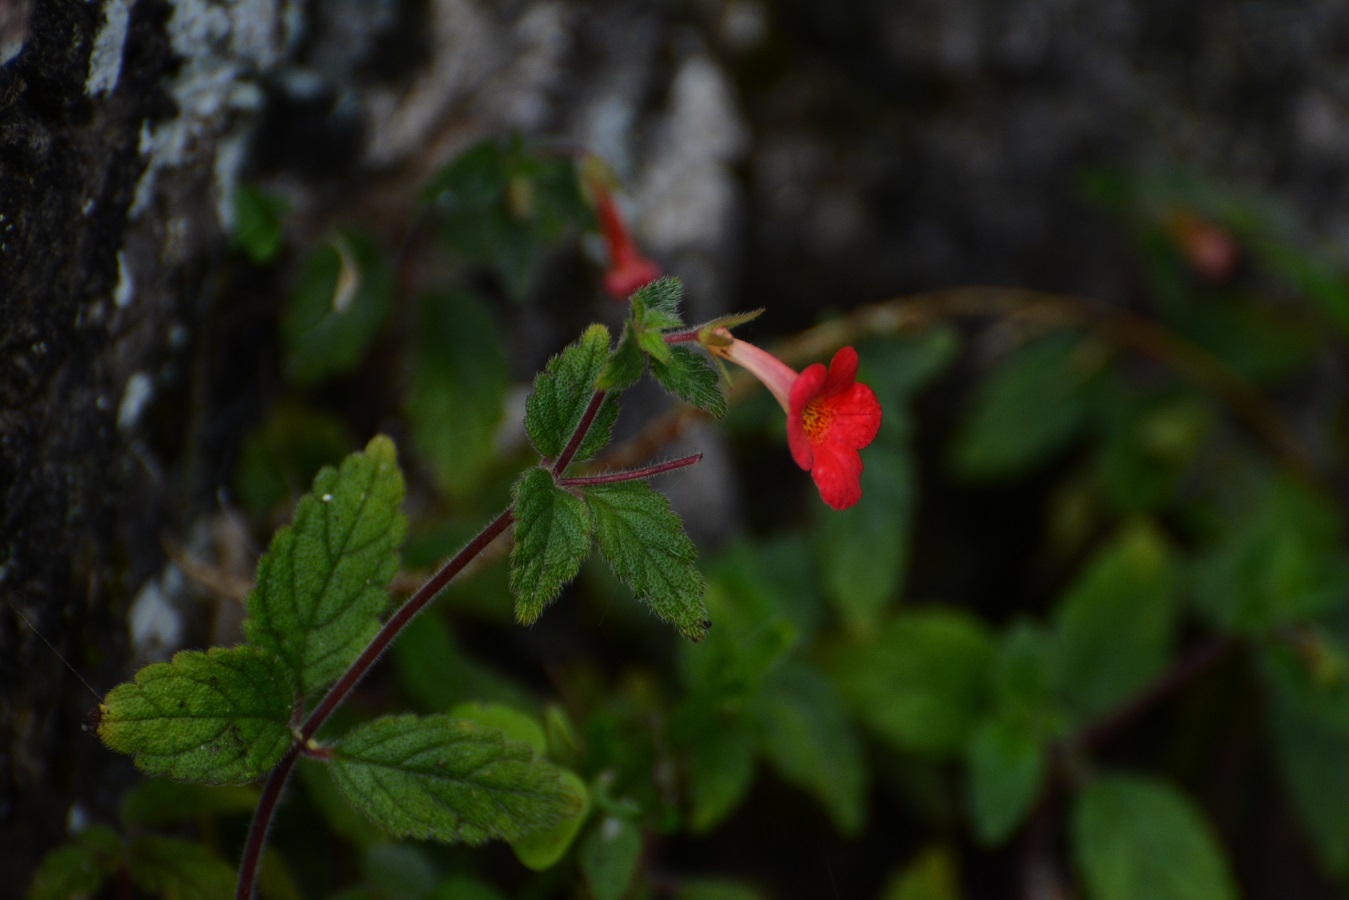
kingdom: Plantae
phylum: Tracheophyta
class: Magnoliopsida
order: Lamiales
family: Gesneriaceae
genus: Achimenes
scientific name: Achimenes erecta
